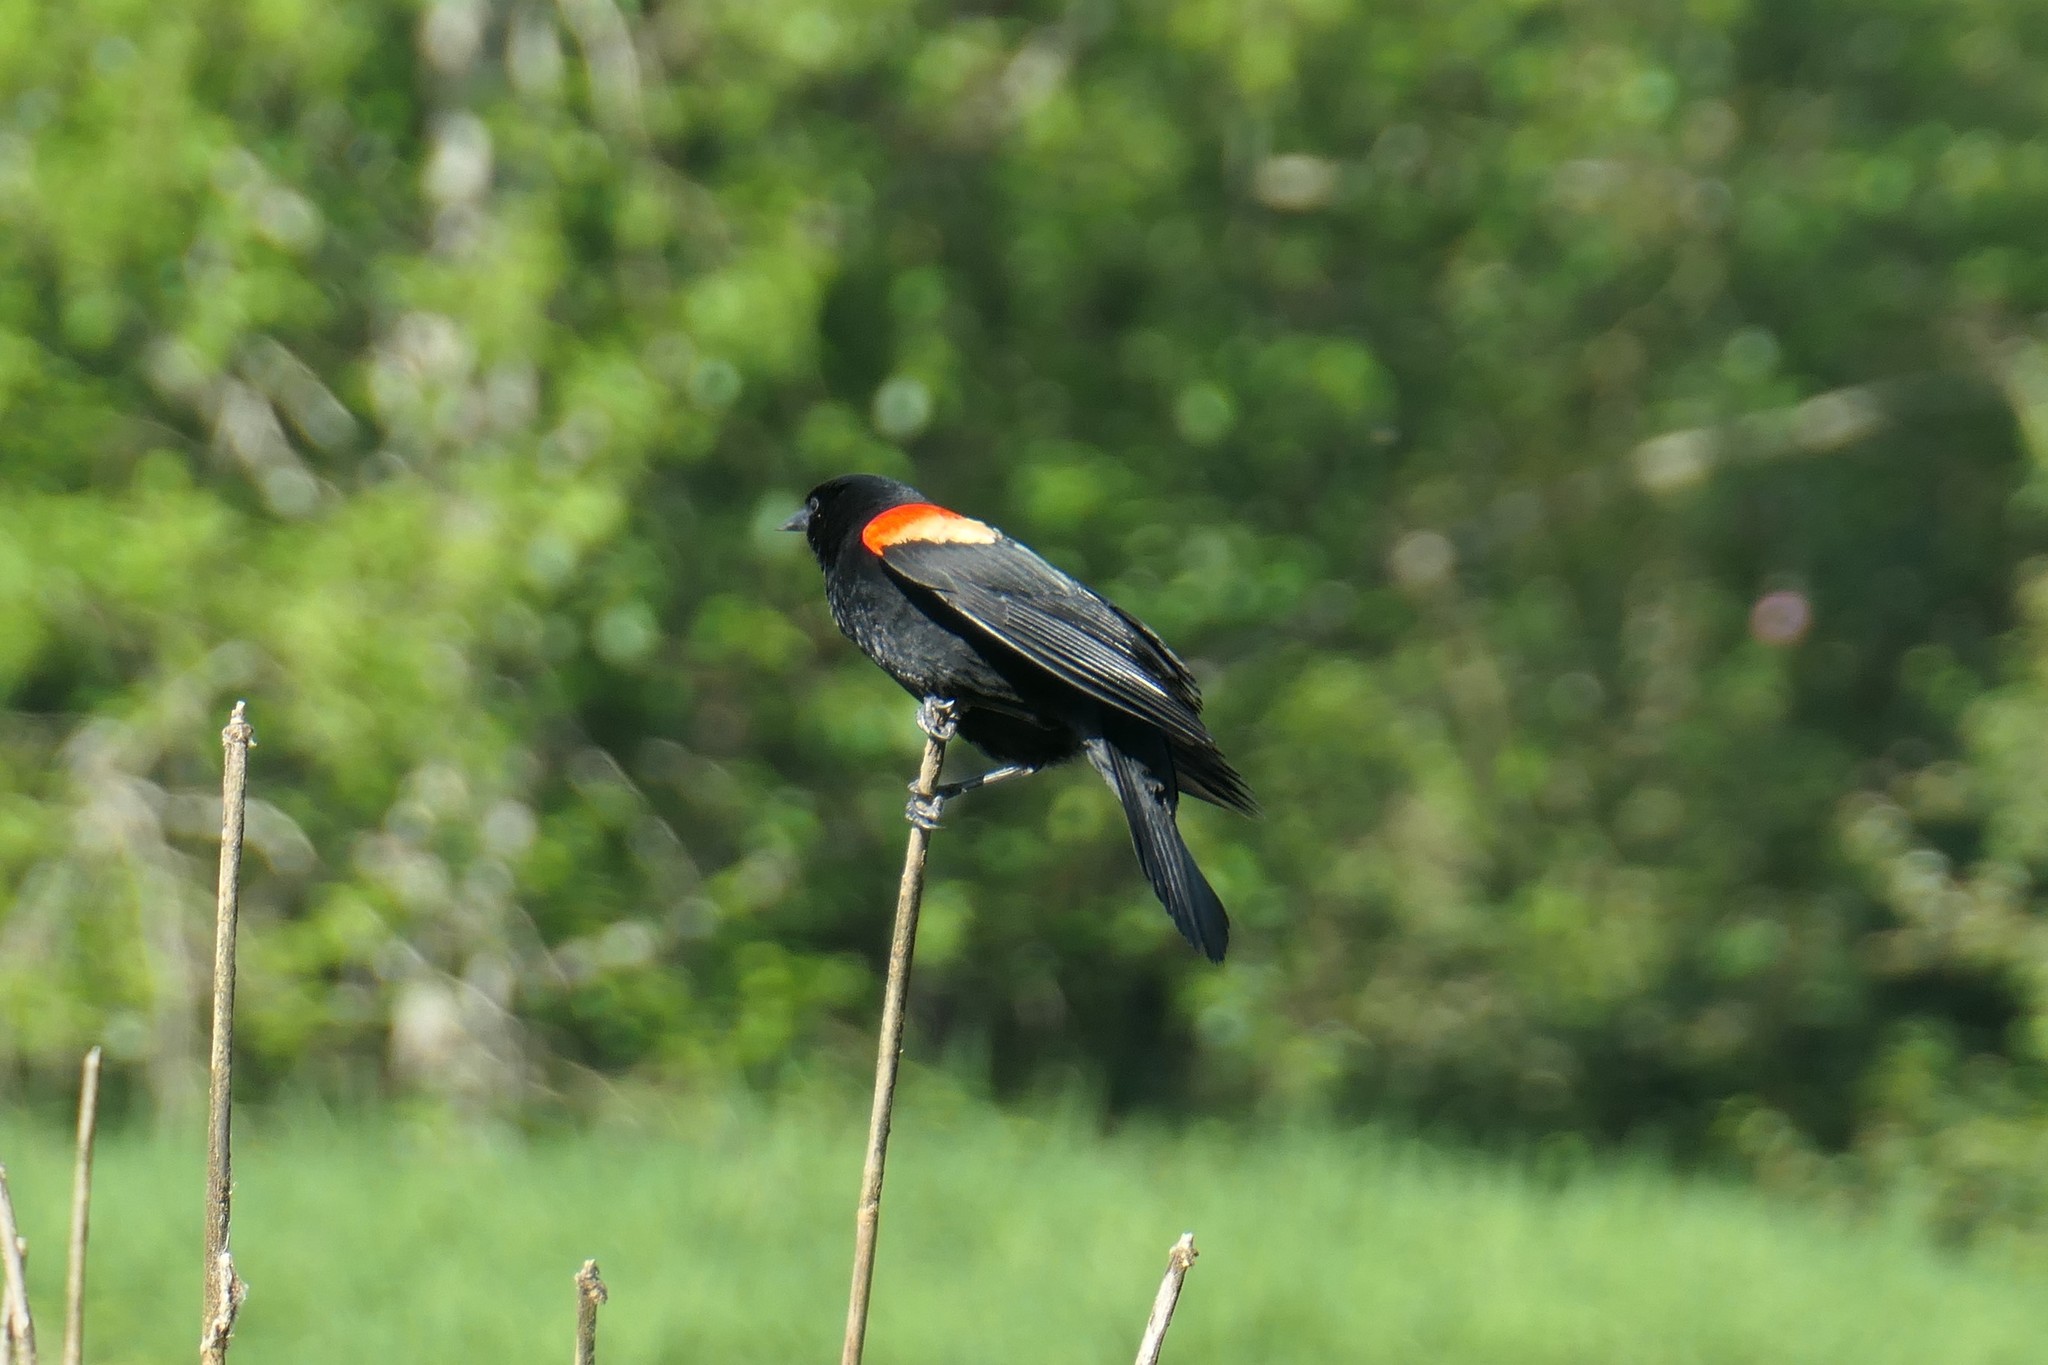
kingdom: Animalia
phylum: Chordata
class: Aves
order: Passeriformes
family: Icteridae
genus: Agelaius
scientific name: Agelaius phoeniceus
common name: Red-winged blackbird
